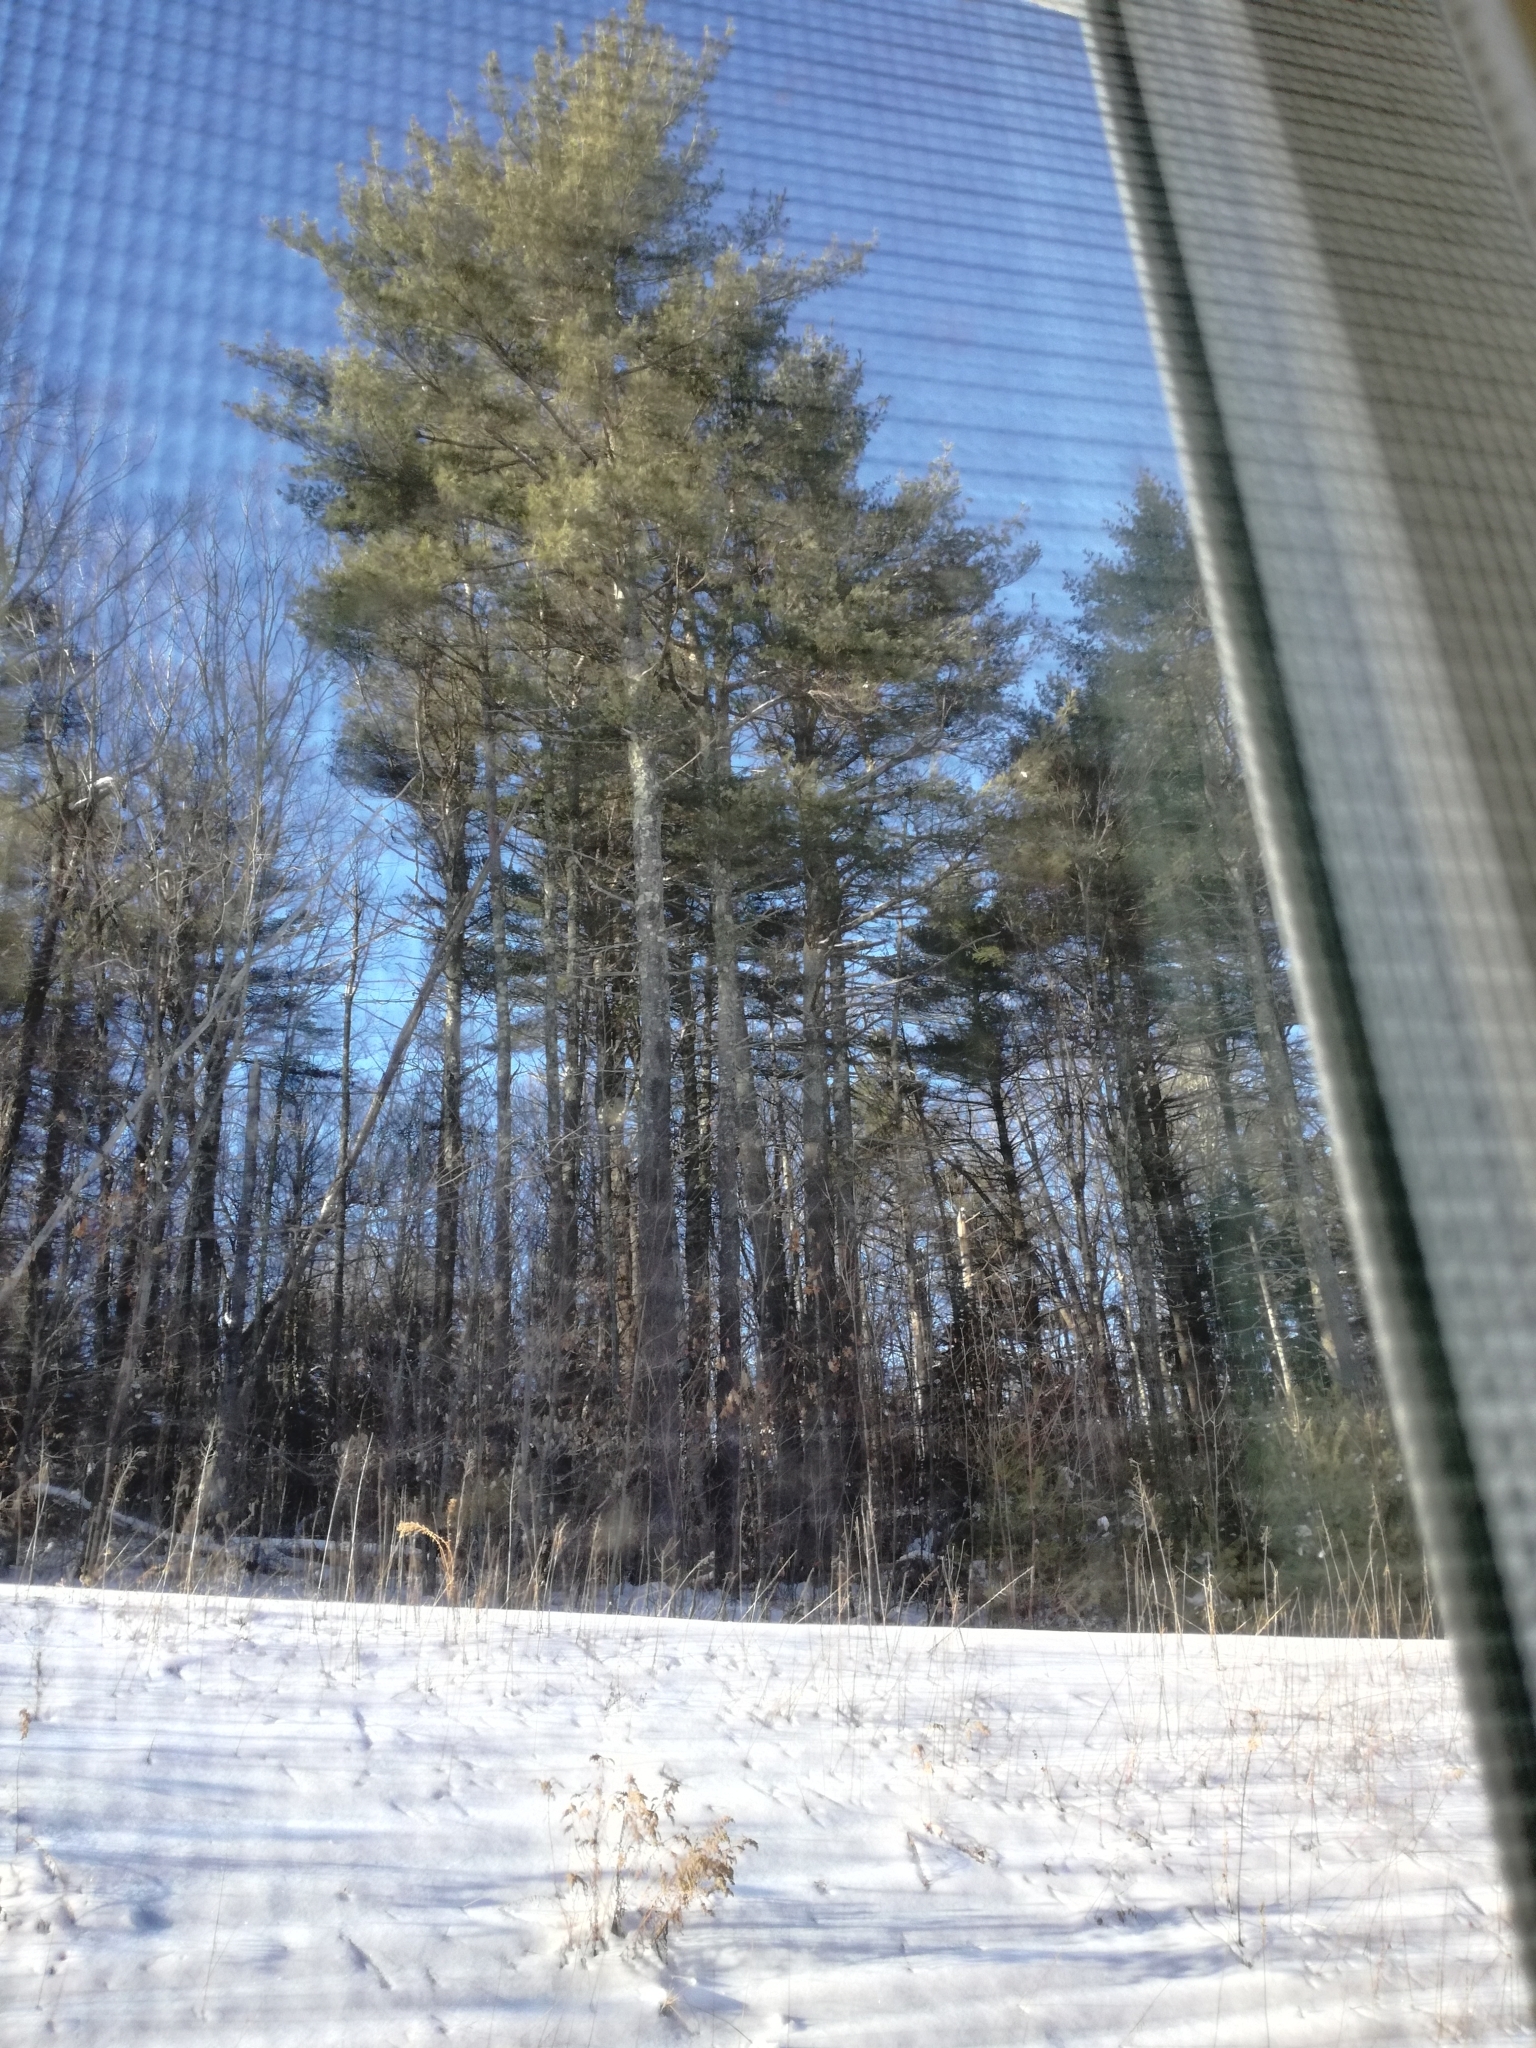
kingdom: Plantae
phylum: Tracheophyta
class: Pinopsida
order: Pinales
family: Pinaceae
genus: Pinus
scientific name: Pinus strobus
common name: Weymouth pine
